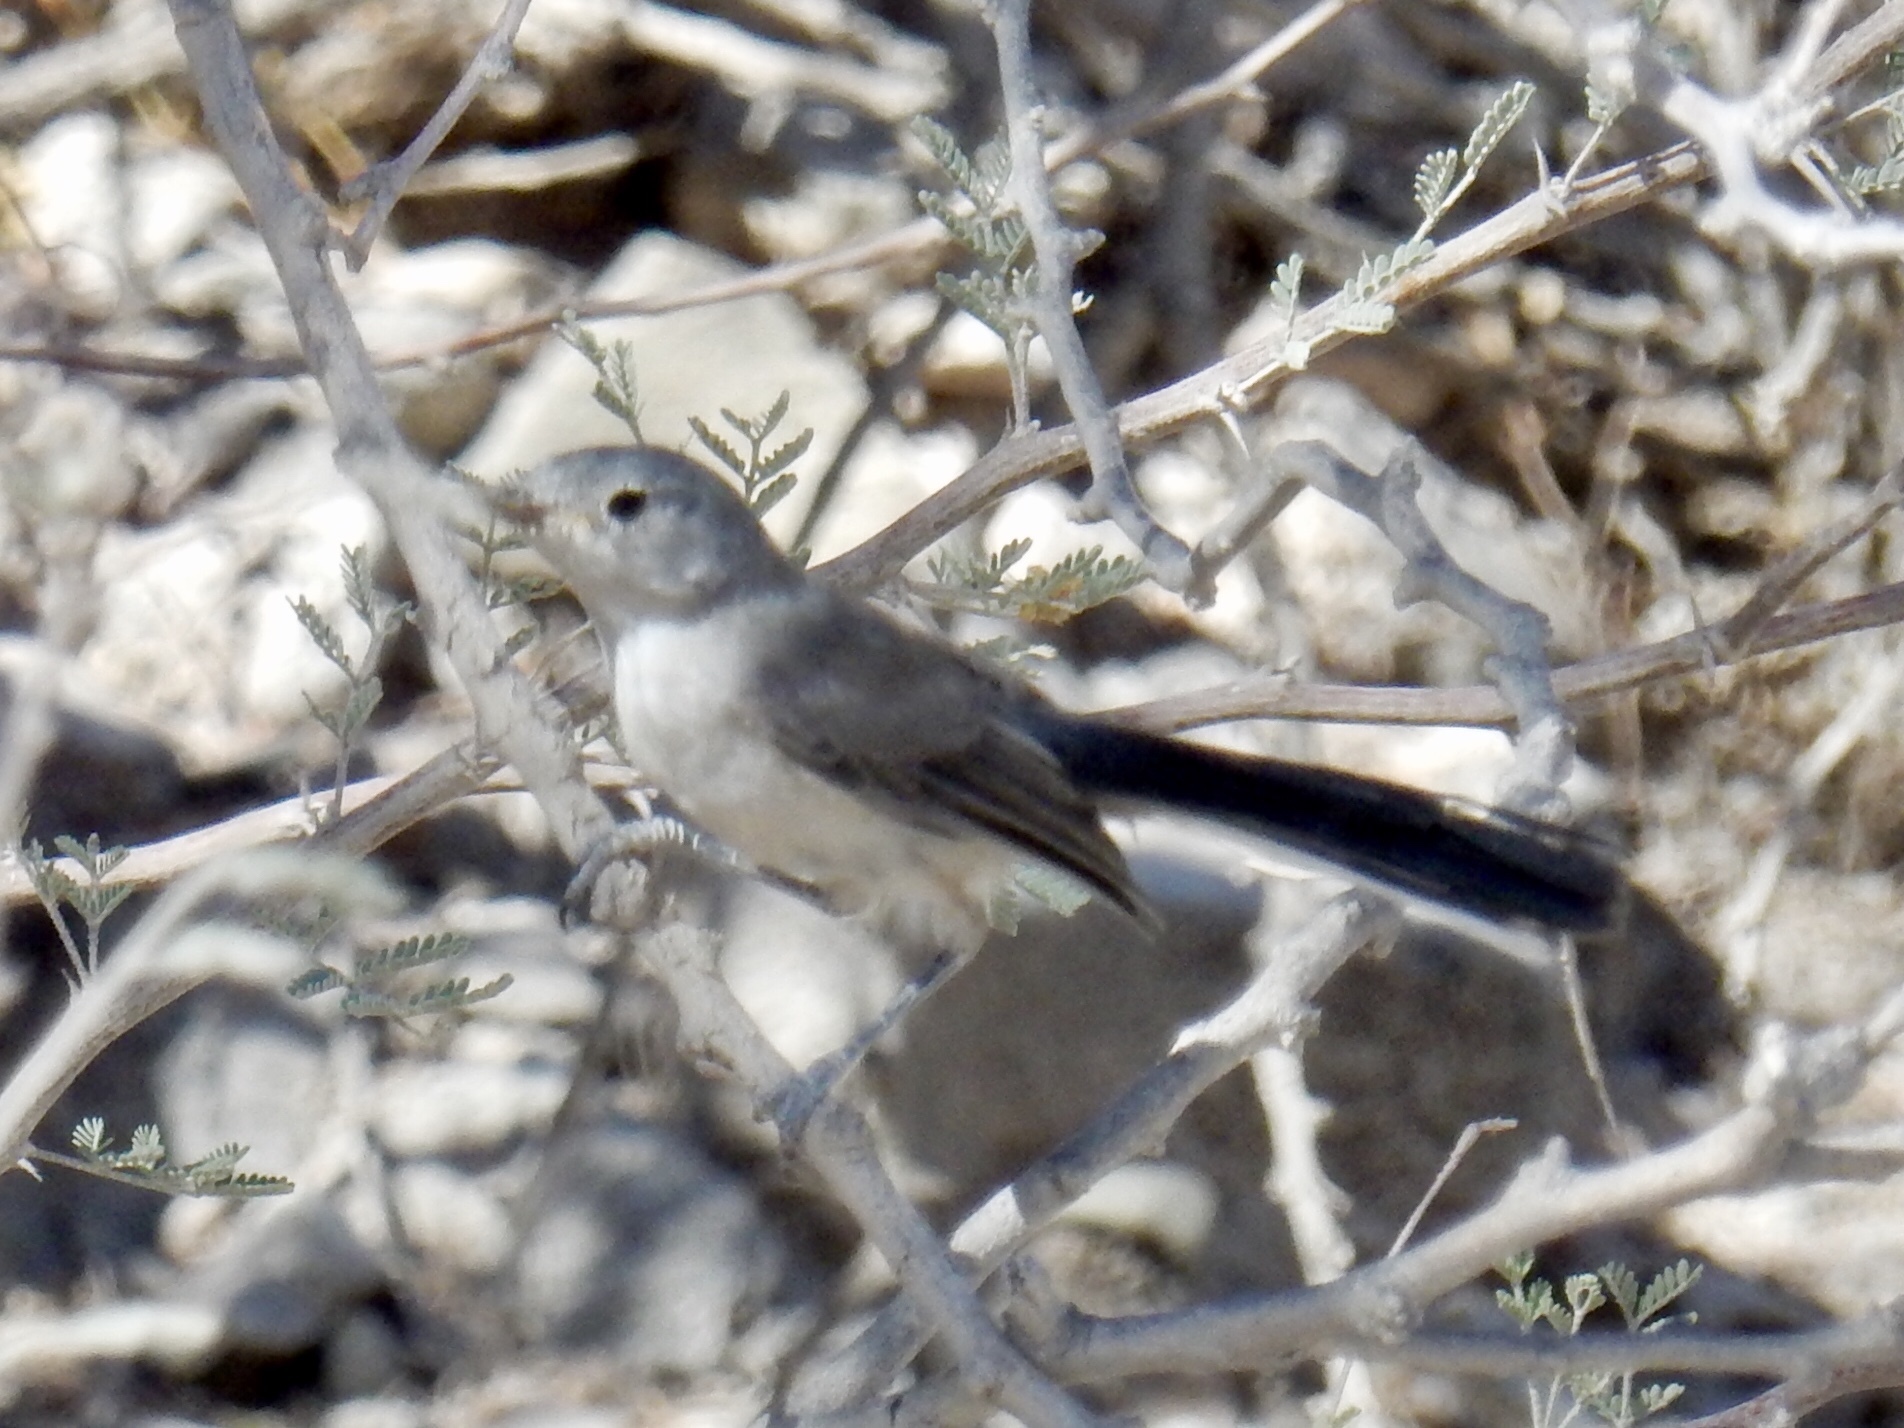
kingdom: Animalia
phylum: Chordata
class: Aves
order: Passeriformes
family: Polioptilidae
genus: Polioptila
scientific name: Polioptila melanura
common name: Black-tailed gnatcatcher
